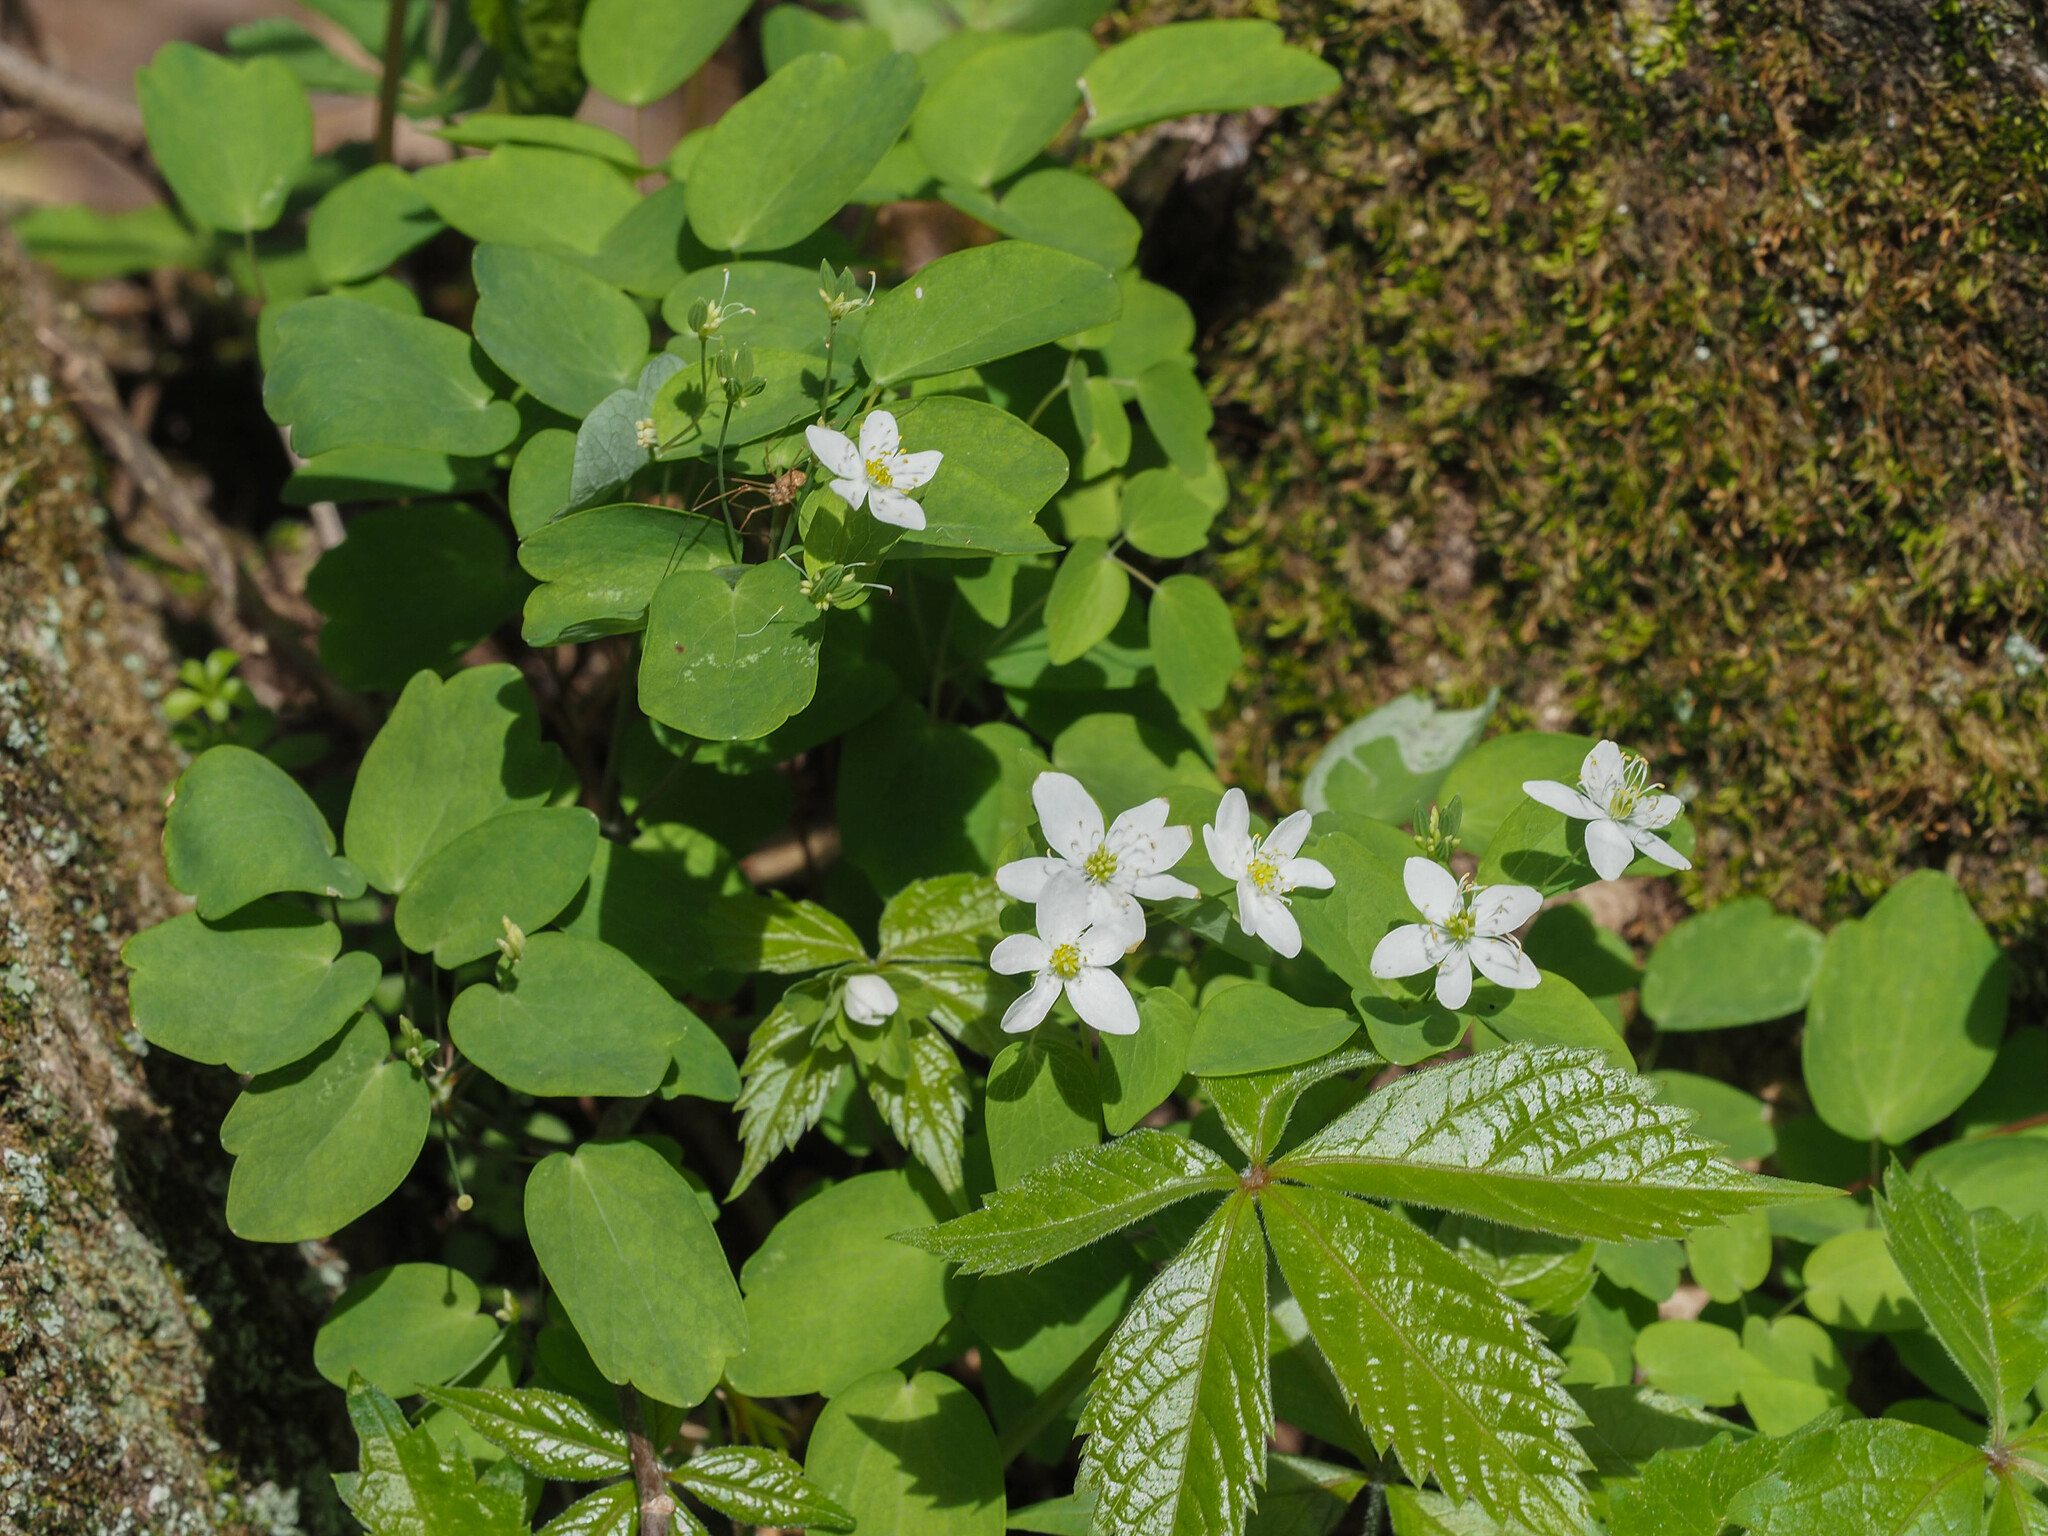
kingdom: Plantae
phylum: Tracheophyta
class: Magnoliopsida
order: Ranunculales
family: Ranunculaceae
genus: Thalictrum
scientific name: Thalictrum thalictroides
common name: Rue-anemone
